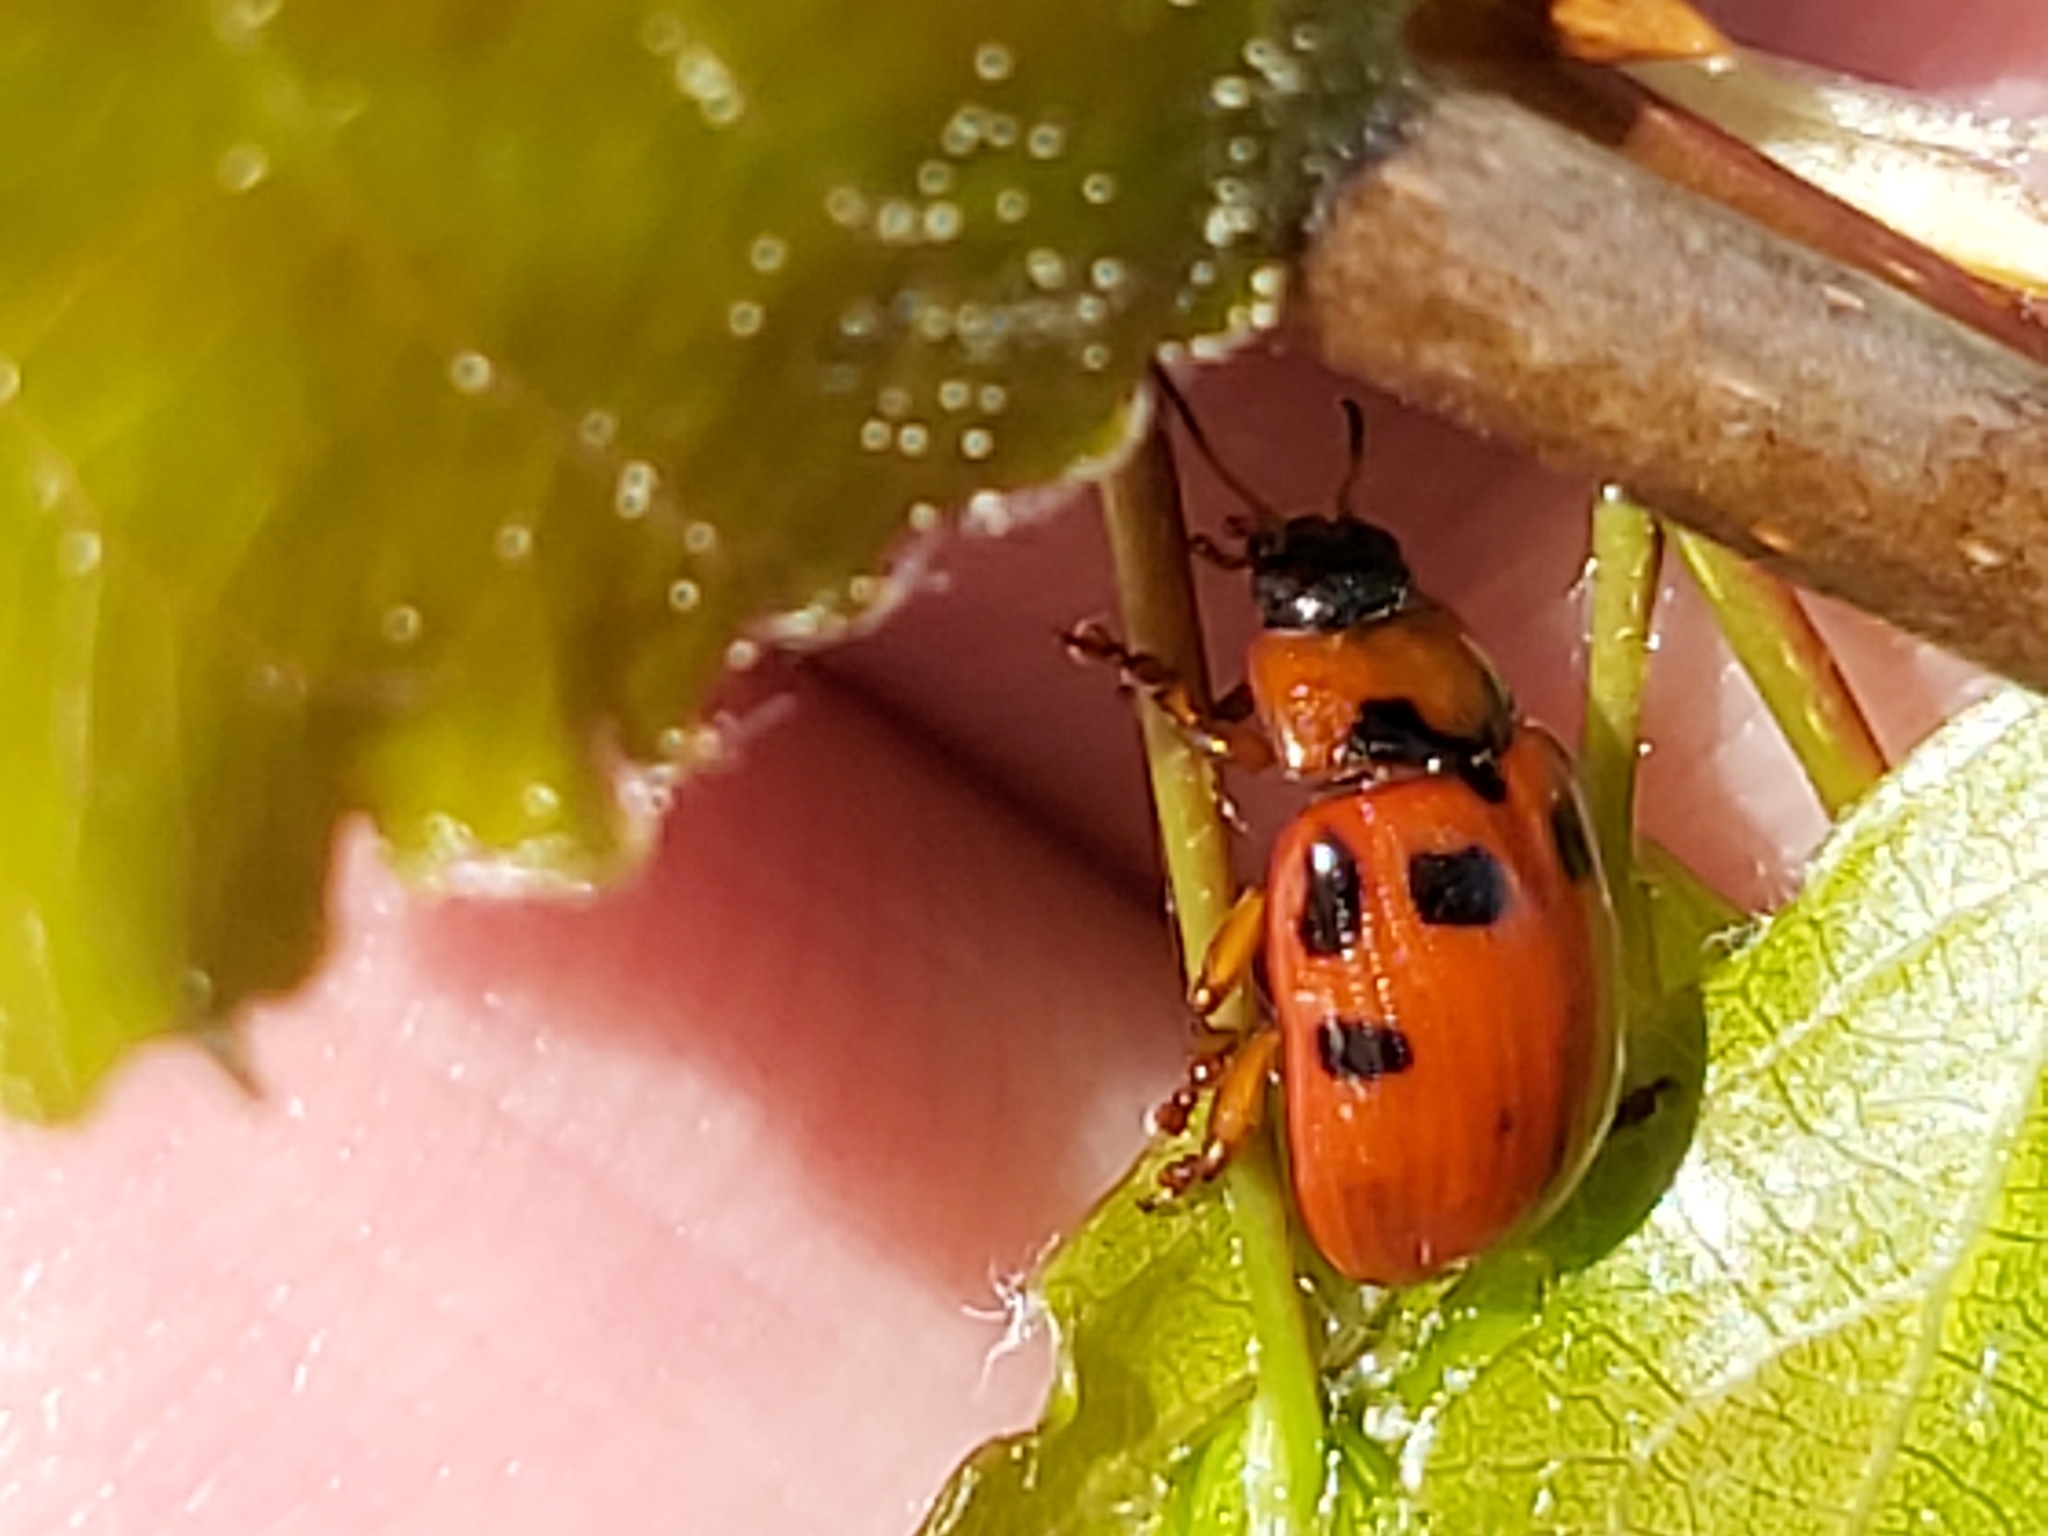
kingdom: Animalia
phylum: Arthropoda
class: Insecta
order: Coleoptera
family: Chrysomelidae
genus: Gonioctena
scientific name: Gonioctena decemnotata
